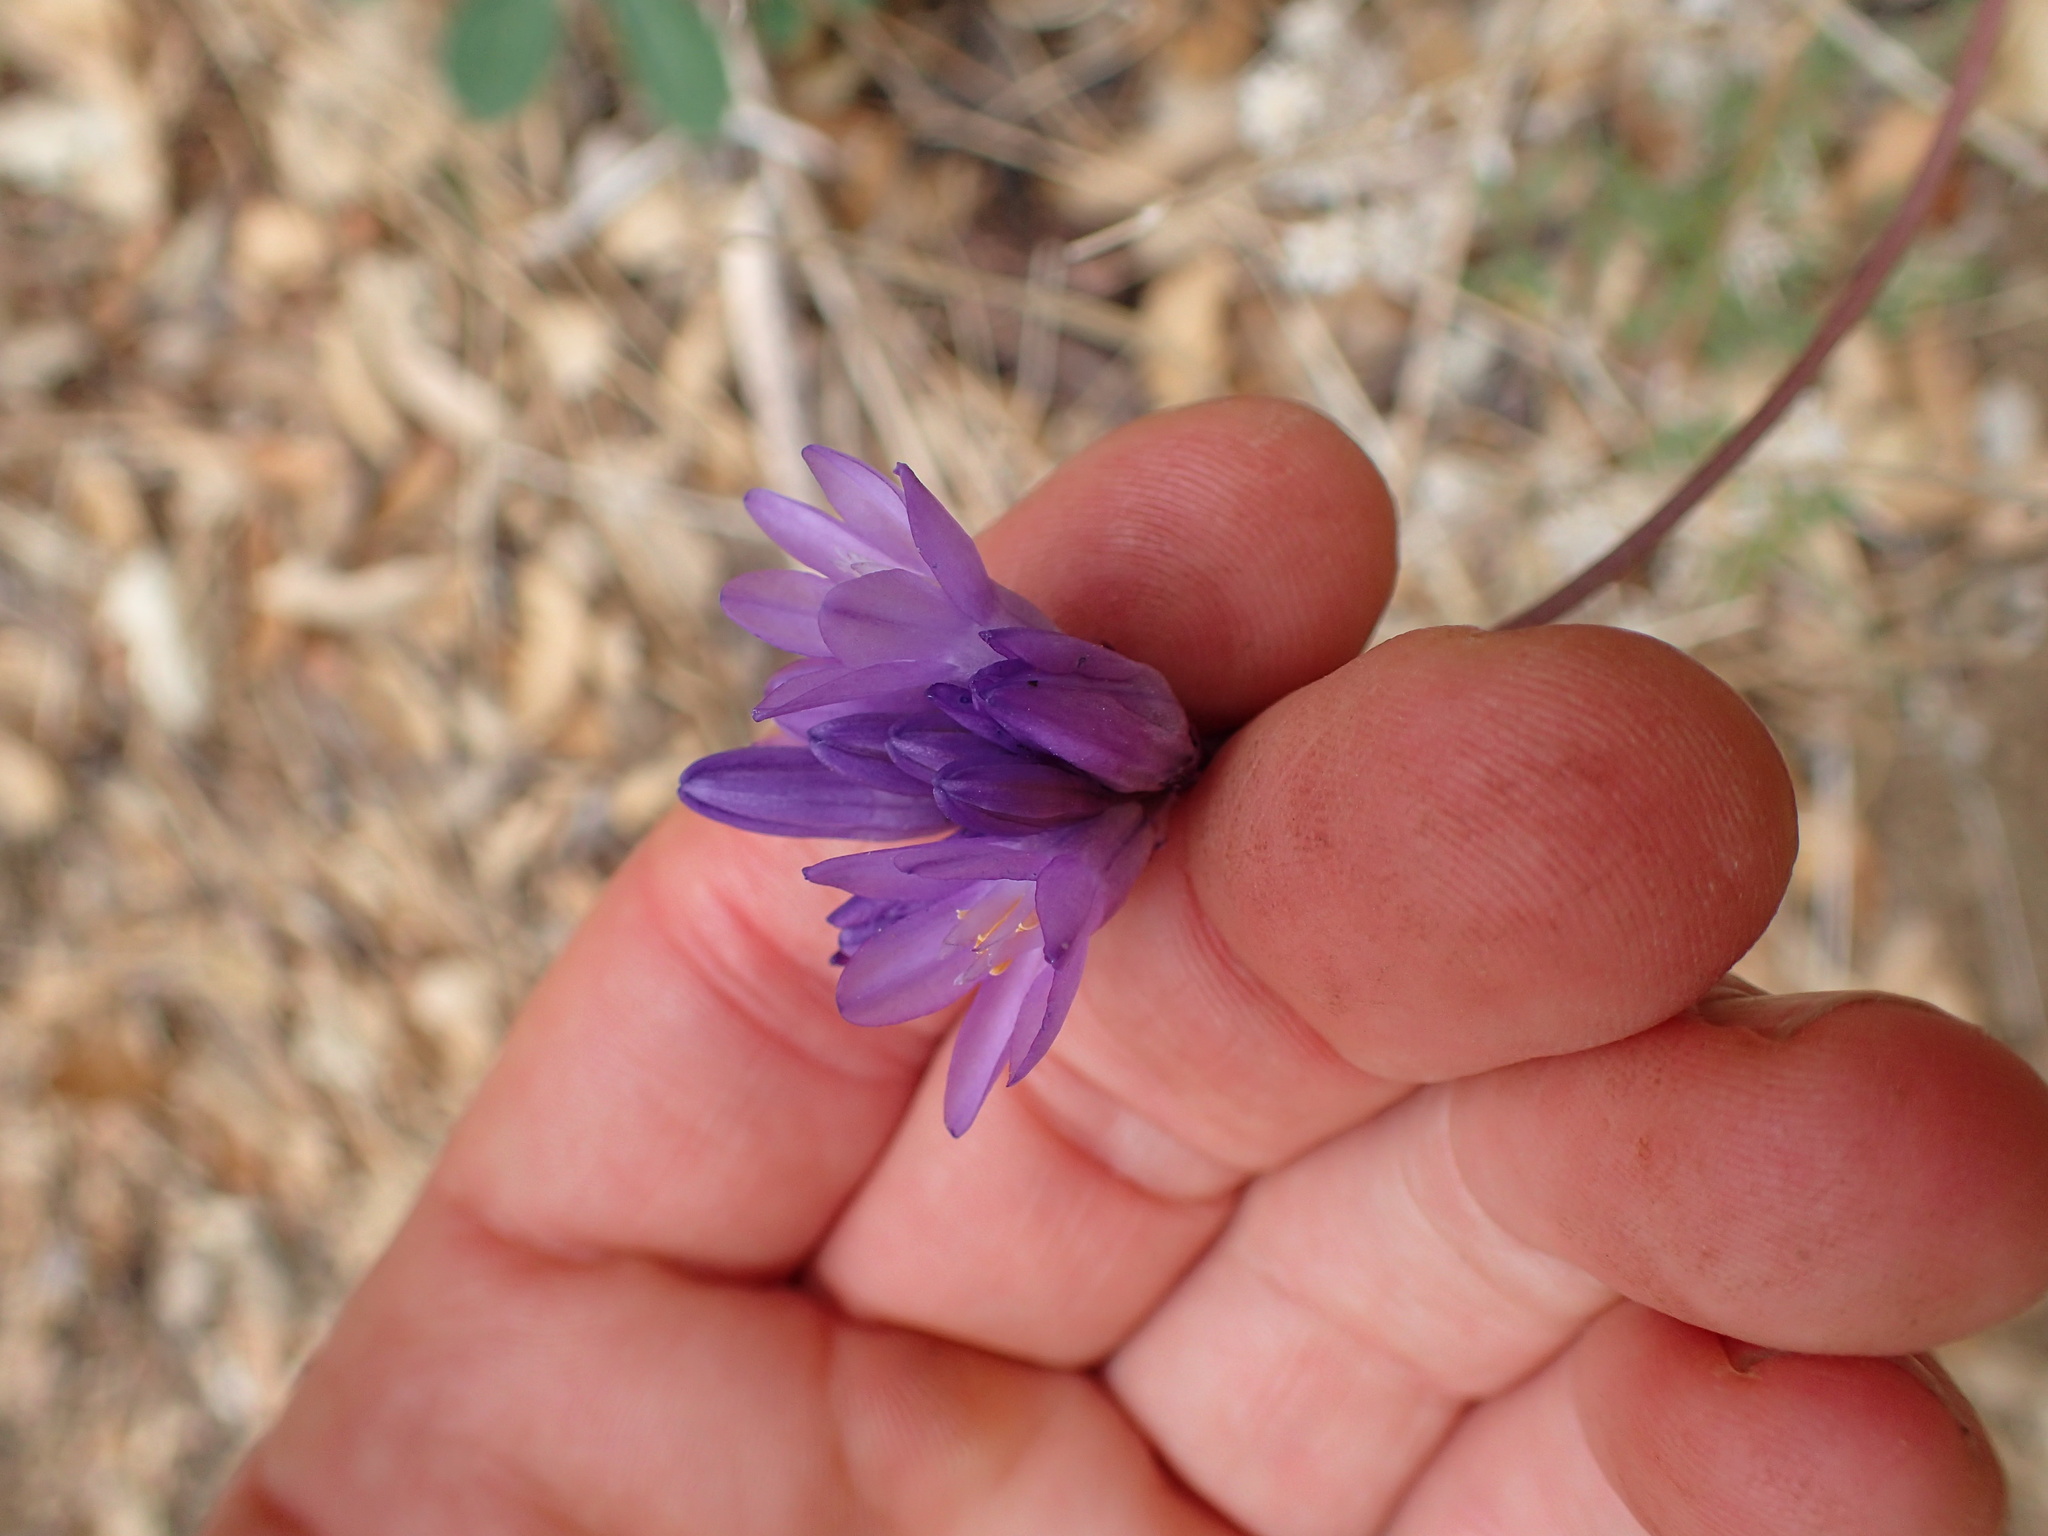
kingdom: Plantae
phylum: Tracheophyta
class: Liliopsida
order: Asparagales
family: Asparagaceae
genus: Dipterostemon
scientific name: Dipterostemon capitatus
